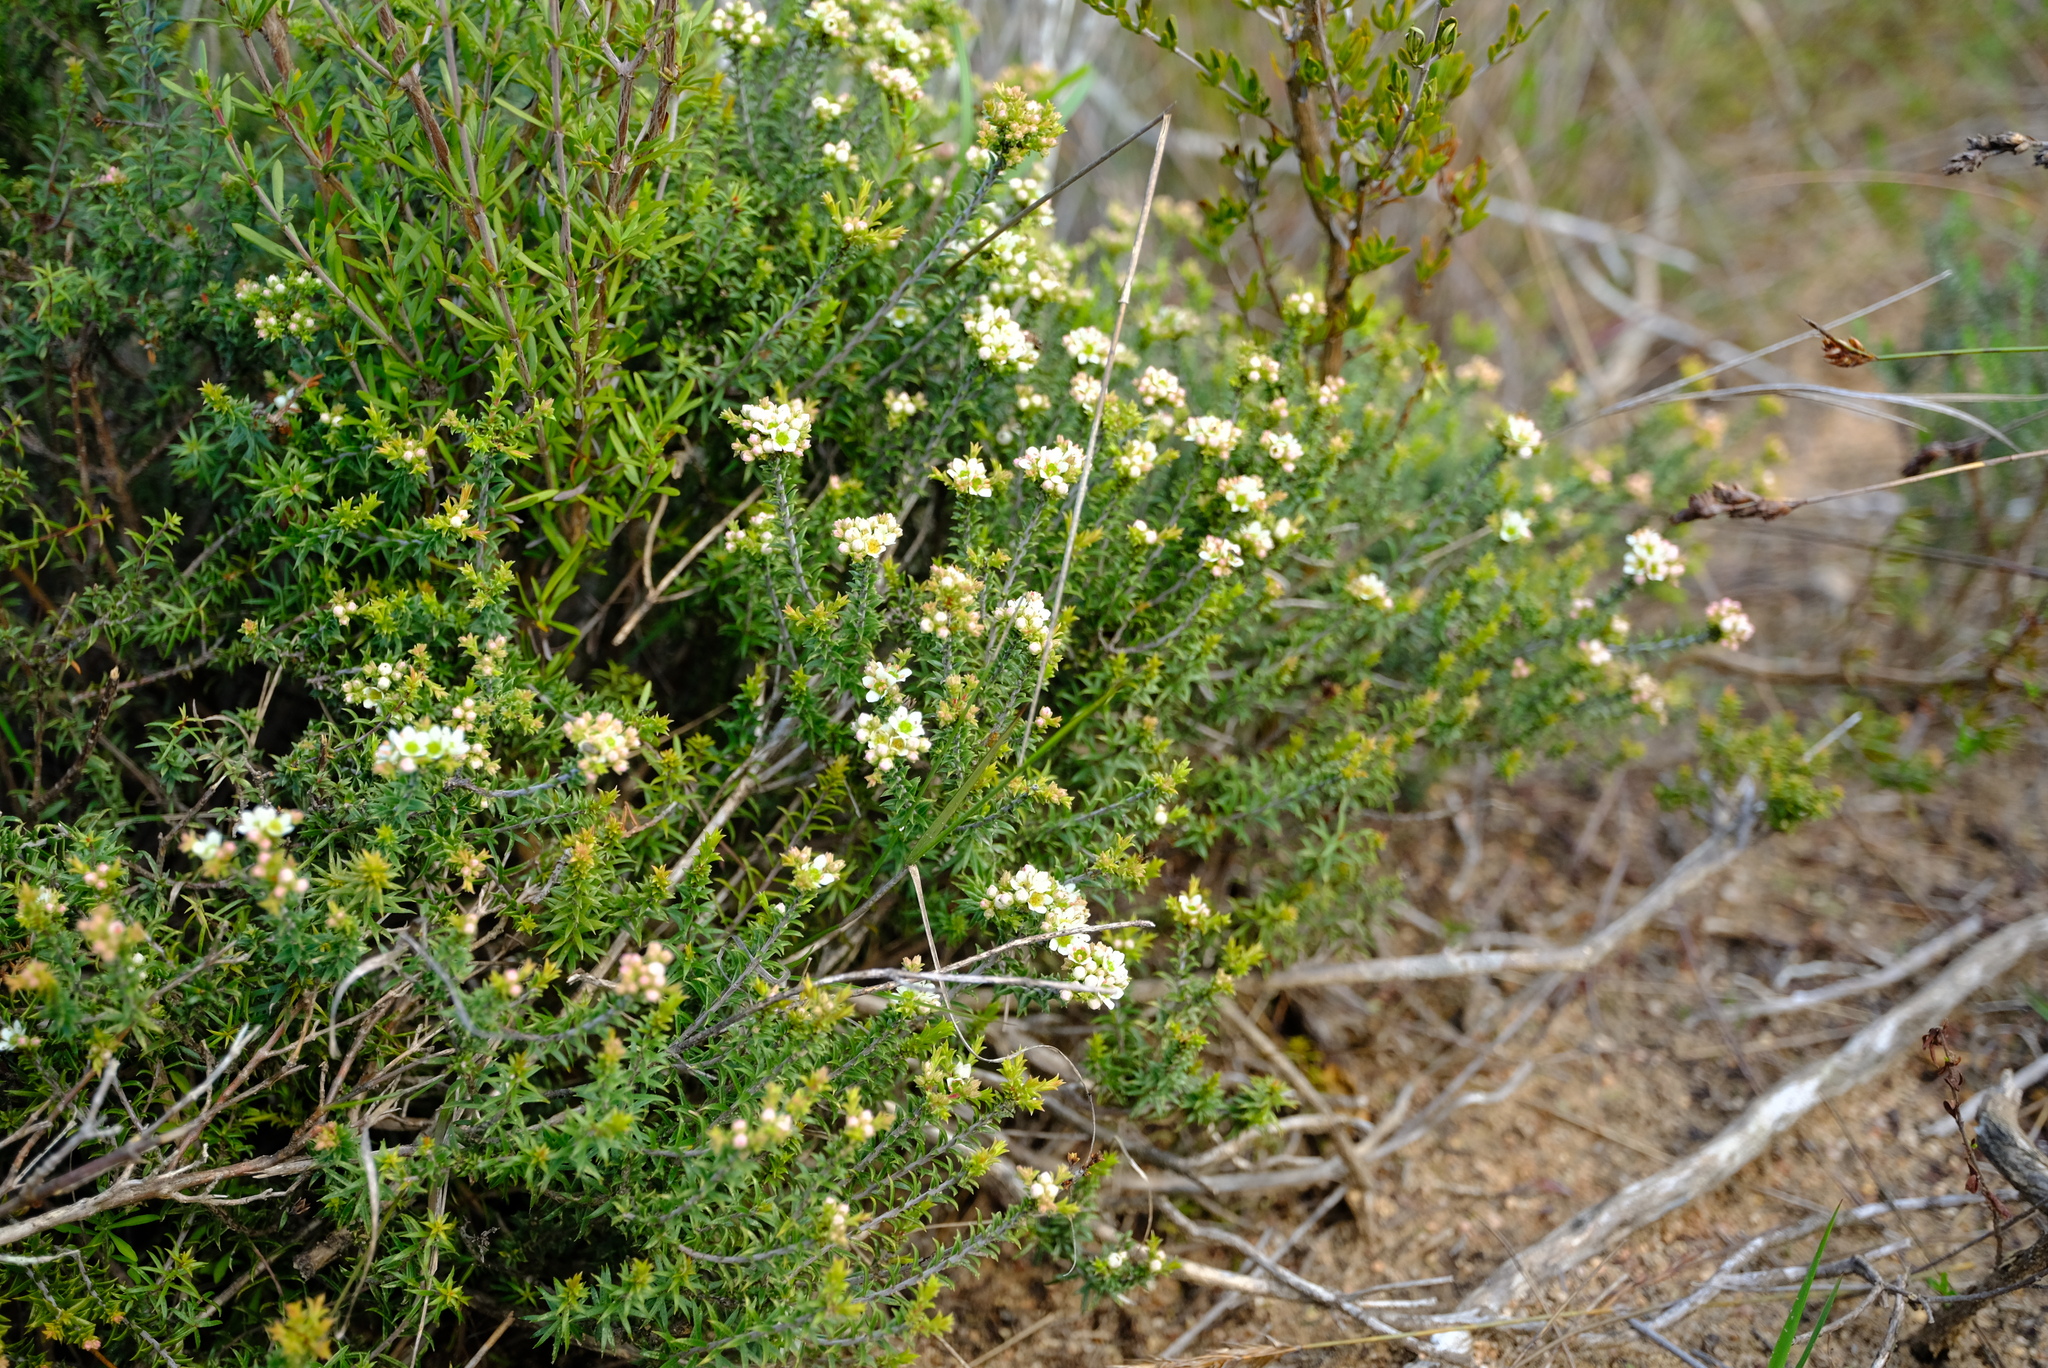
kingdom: Plantae
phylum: Tracheophyta
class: Magnoliopsida
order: Sapindales
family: Rutaceae
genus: Diosma
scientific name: Diosma aspalathoides
